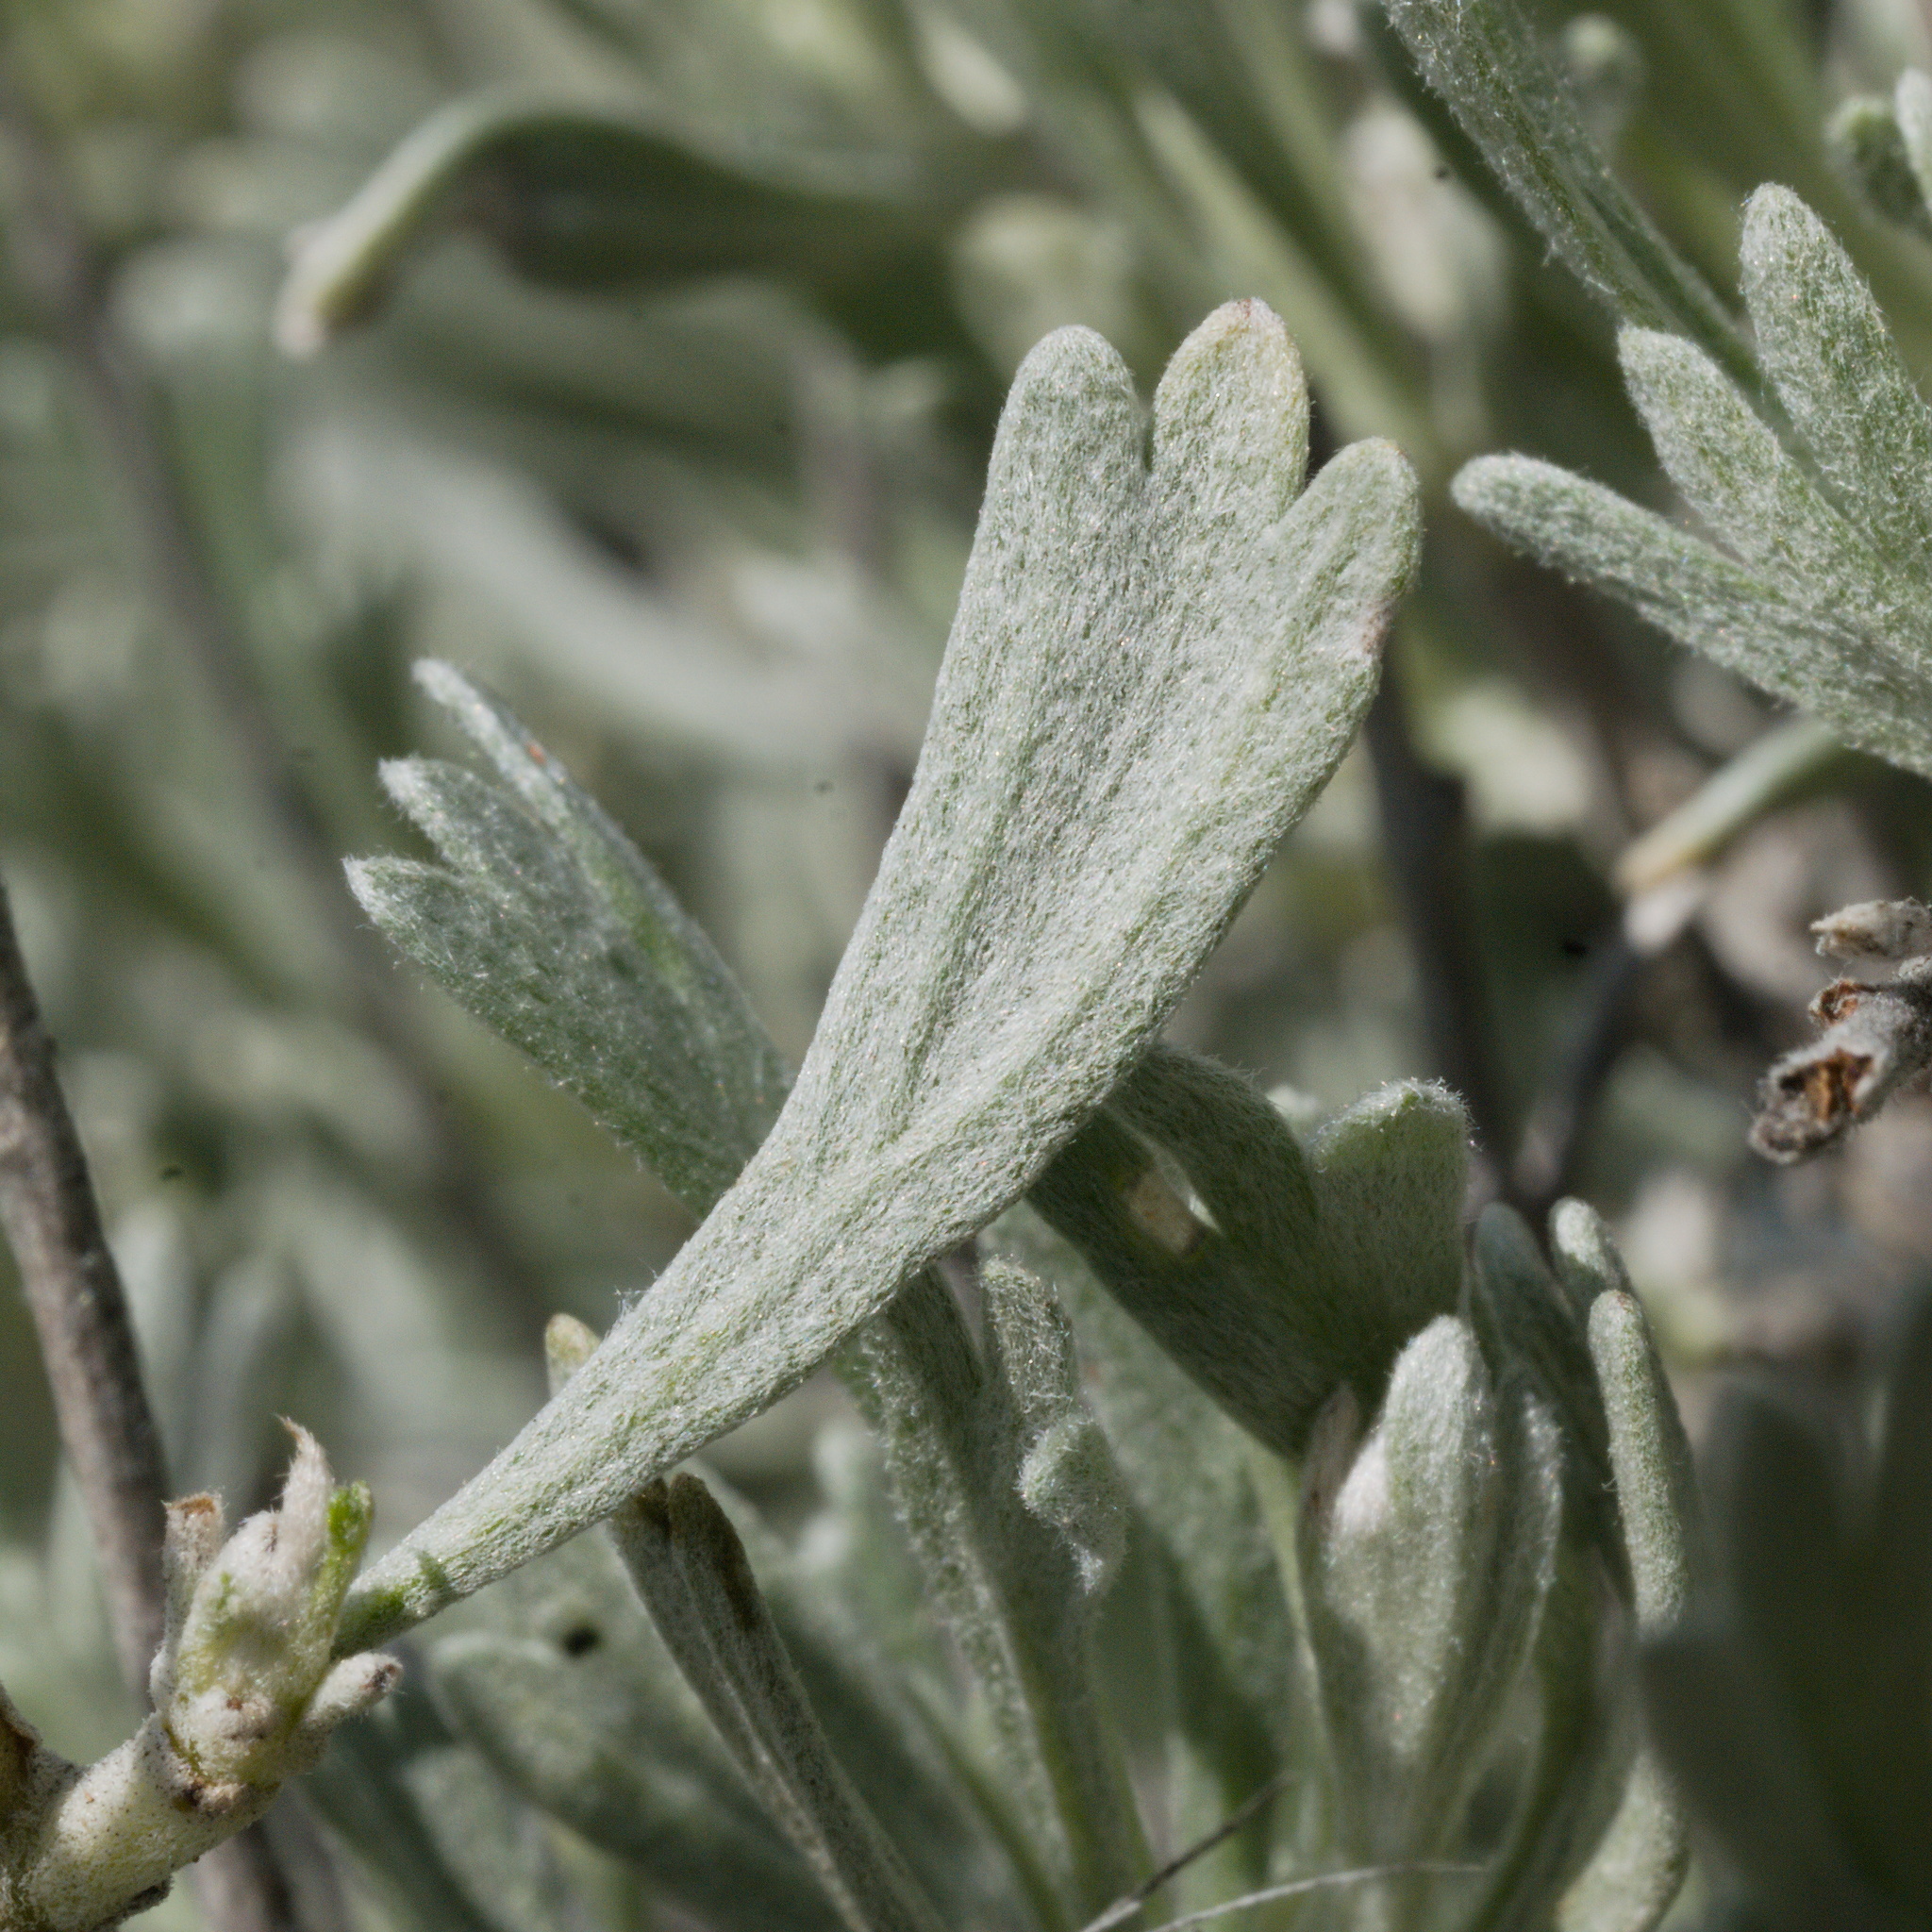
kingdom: Plantae
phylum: Tracheophyta
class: Magnoliopsida
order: Asterales
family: Asteraceae
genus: Artemisia
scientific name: Artemisia tridentata
